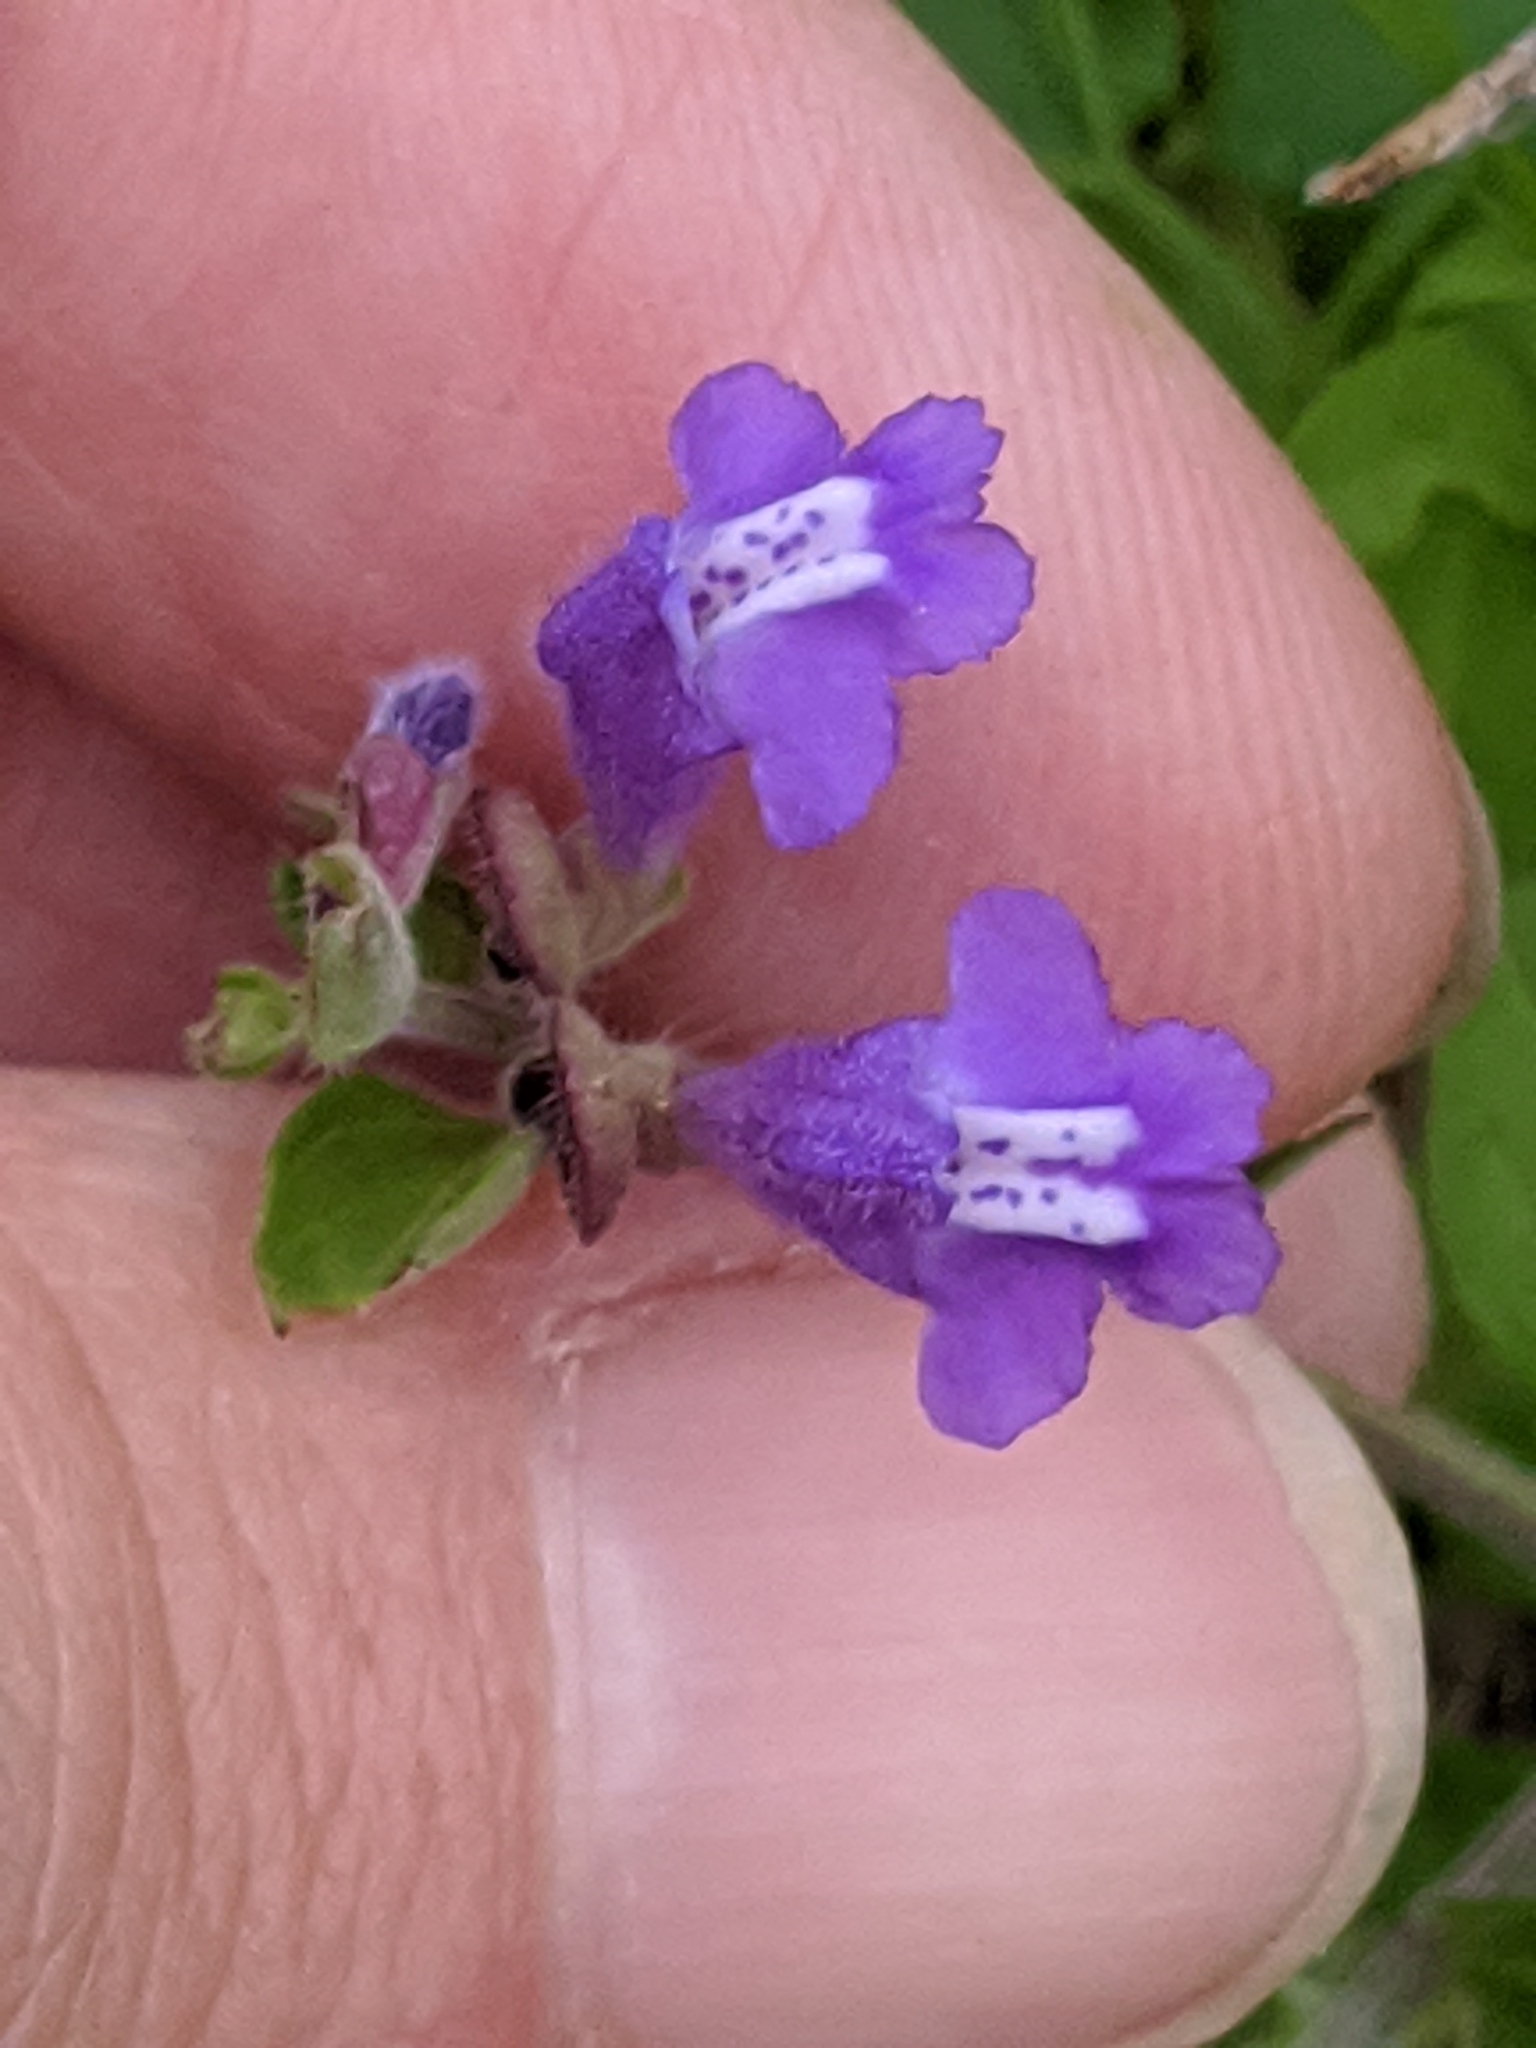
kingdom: Plantae
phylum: Tracheophyta
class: Magnoliopsida
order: Lamiales
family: Lamiaceae
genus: Scutellaria
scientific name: Scutellaria drummondii
